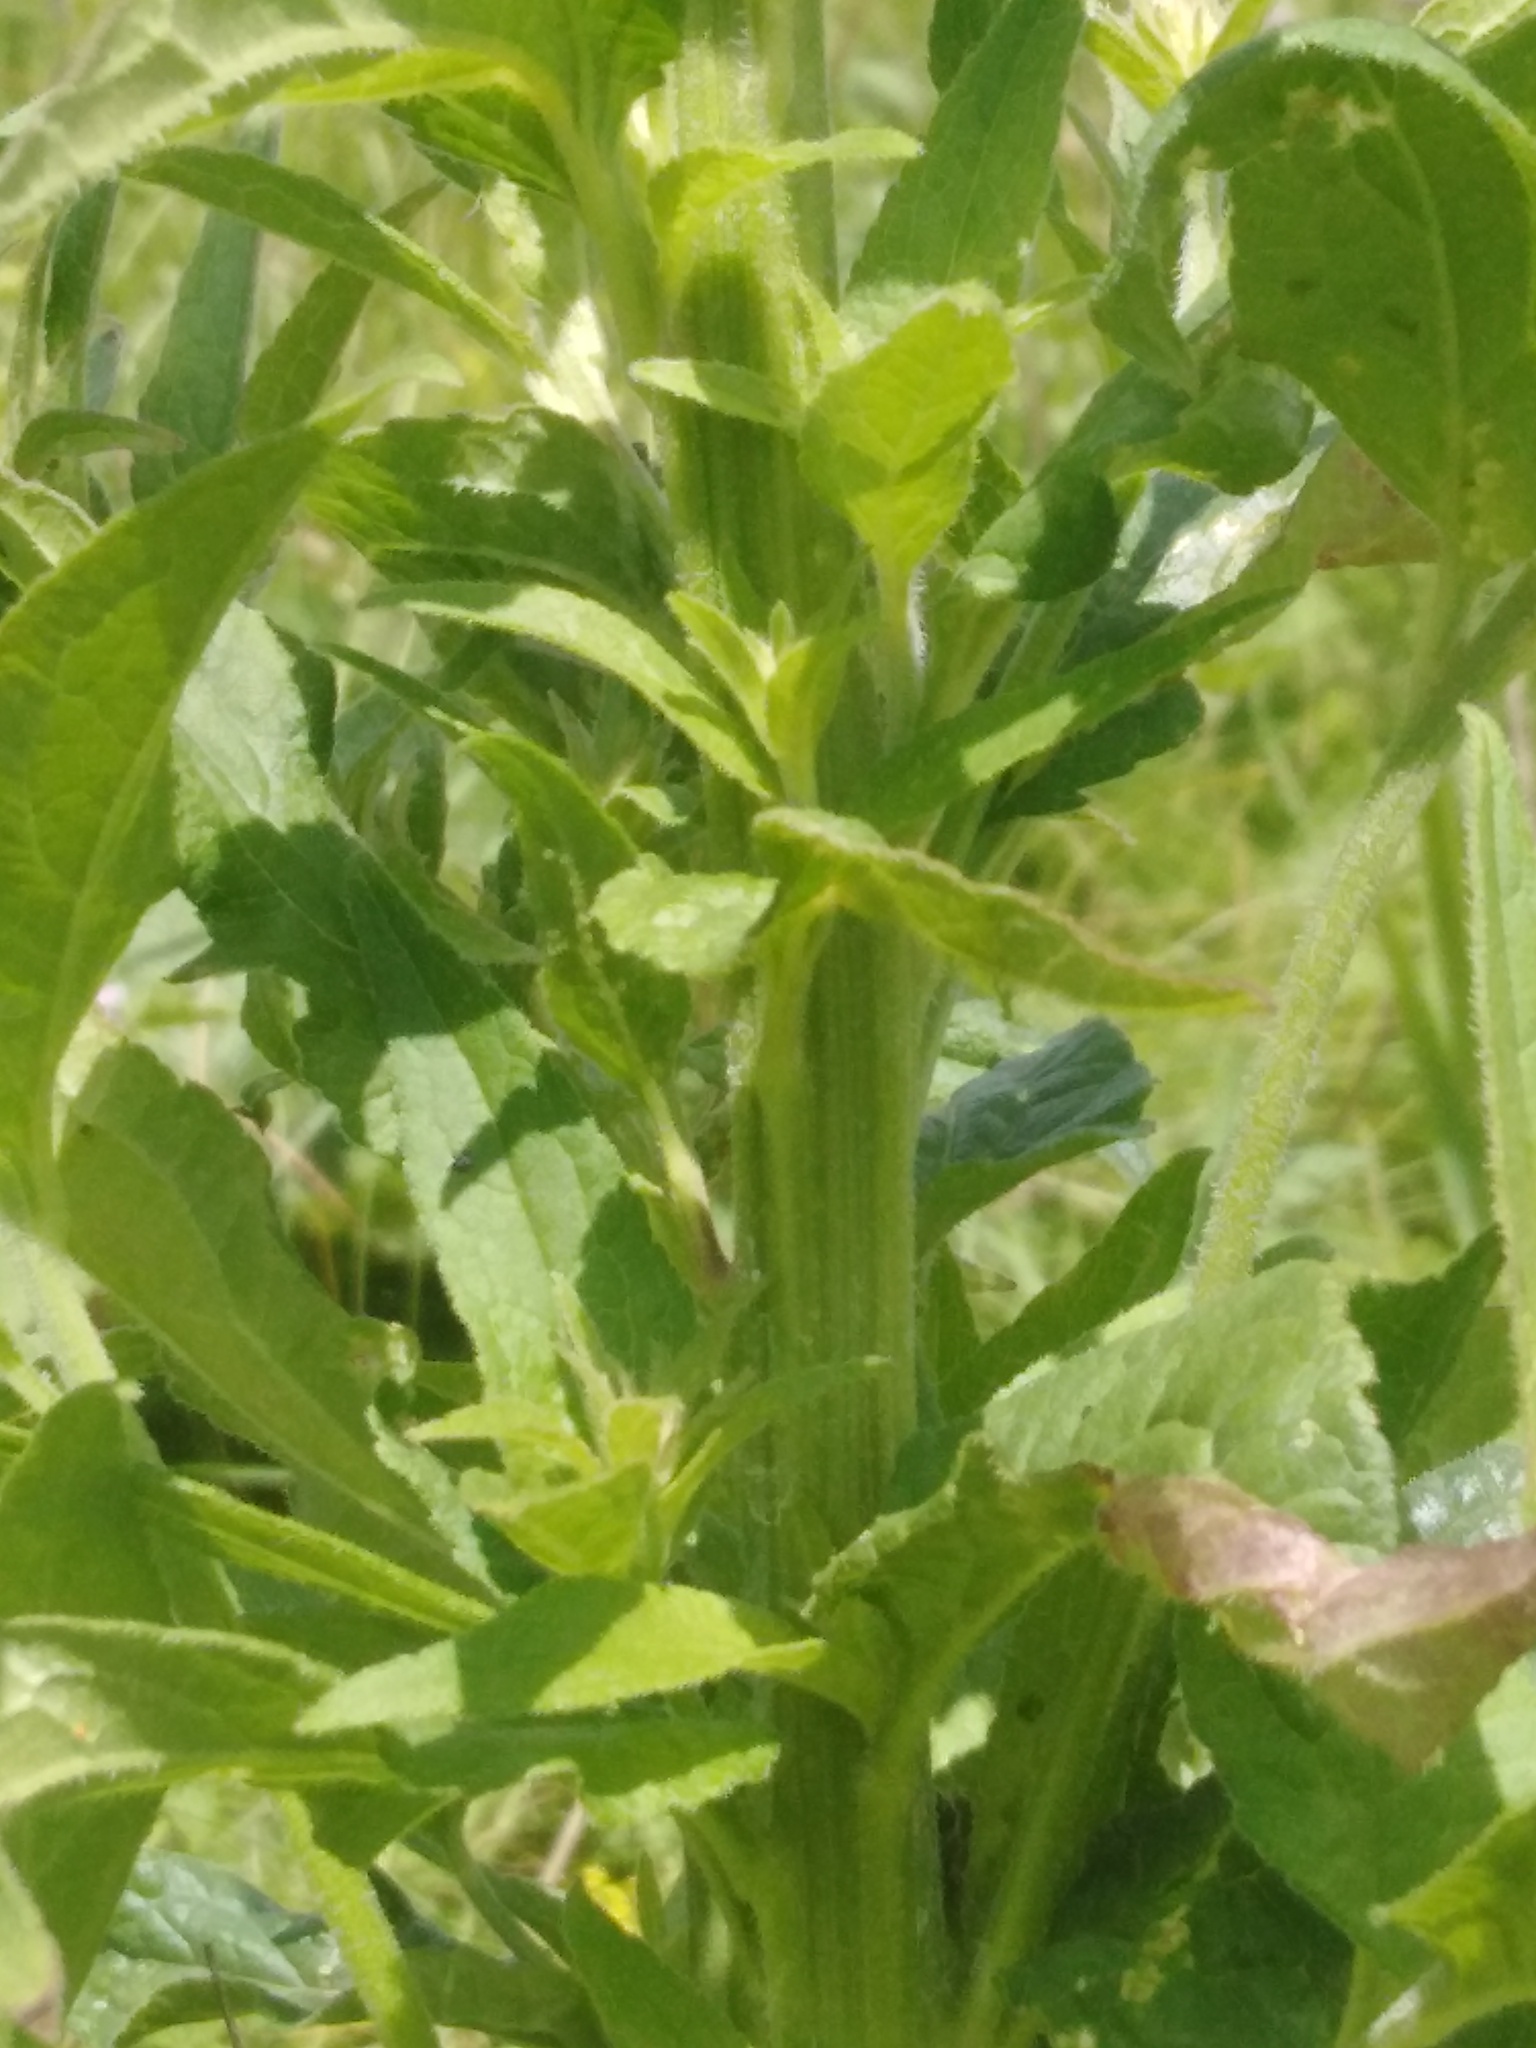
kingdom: Plantae
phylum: Tracheophyta
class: Magnoliopsida
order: Asterales
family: Campanulaceae
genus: Campanula
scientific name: Campanula rapunculoides
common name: Creeping bellflower
